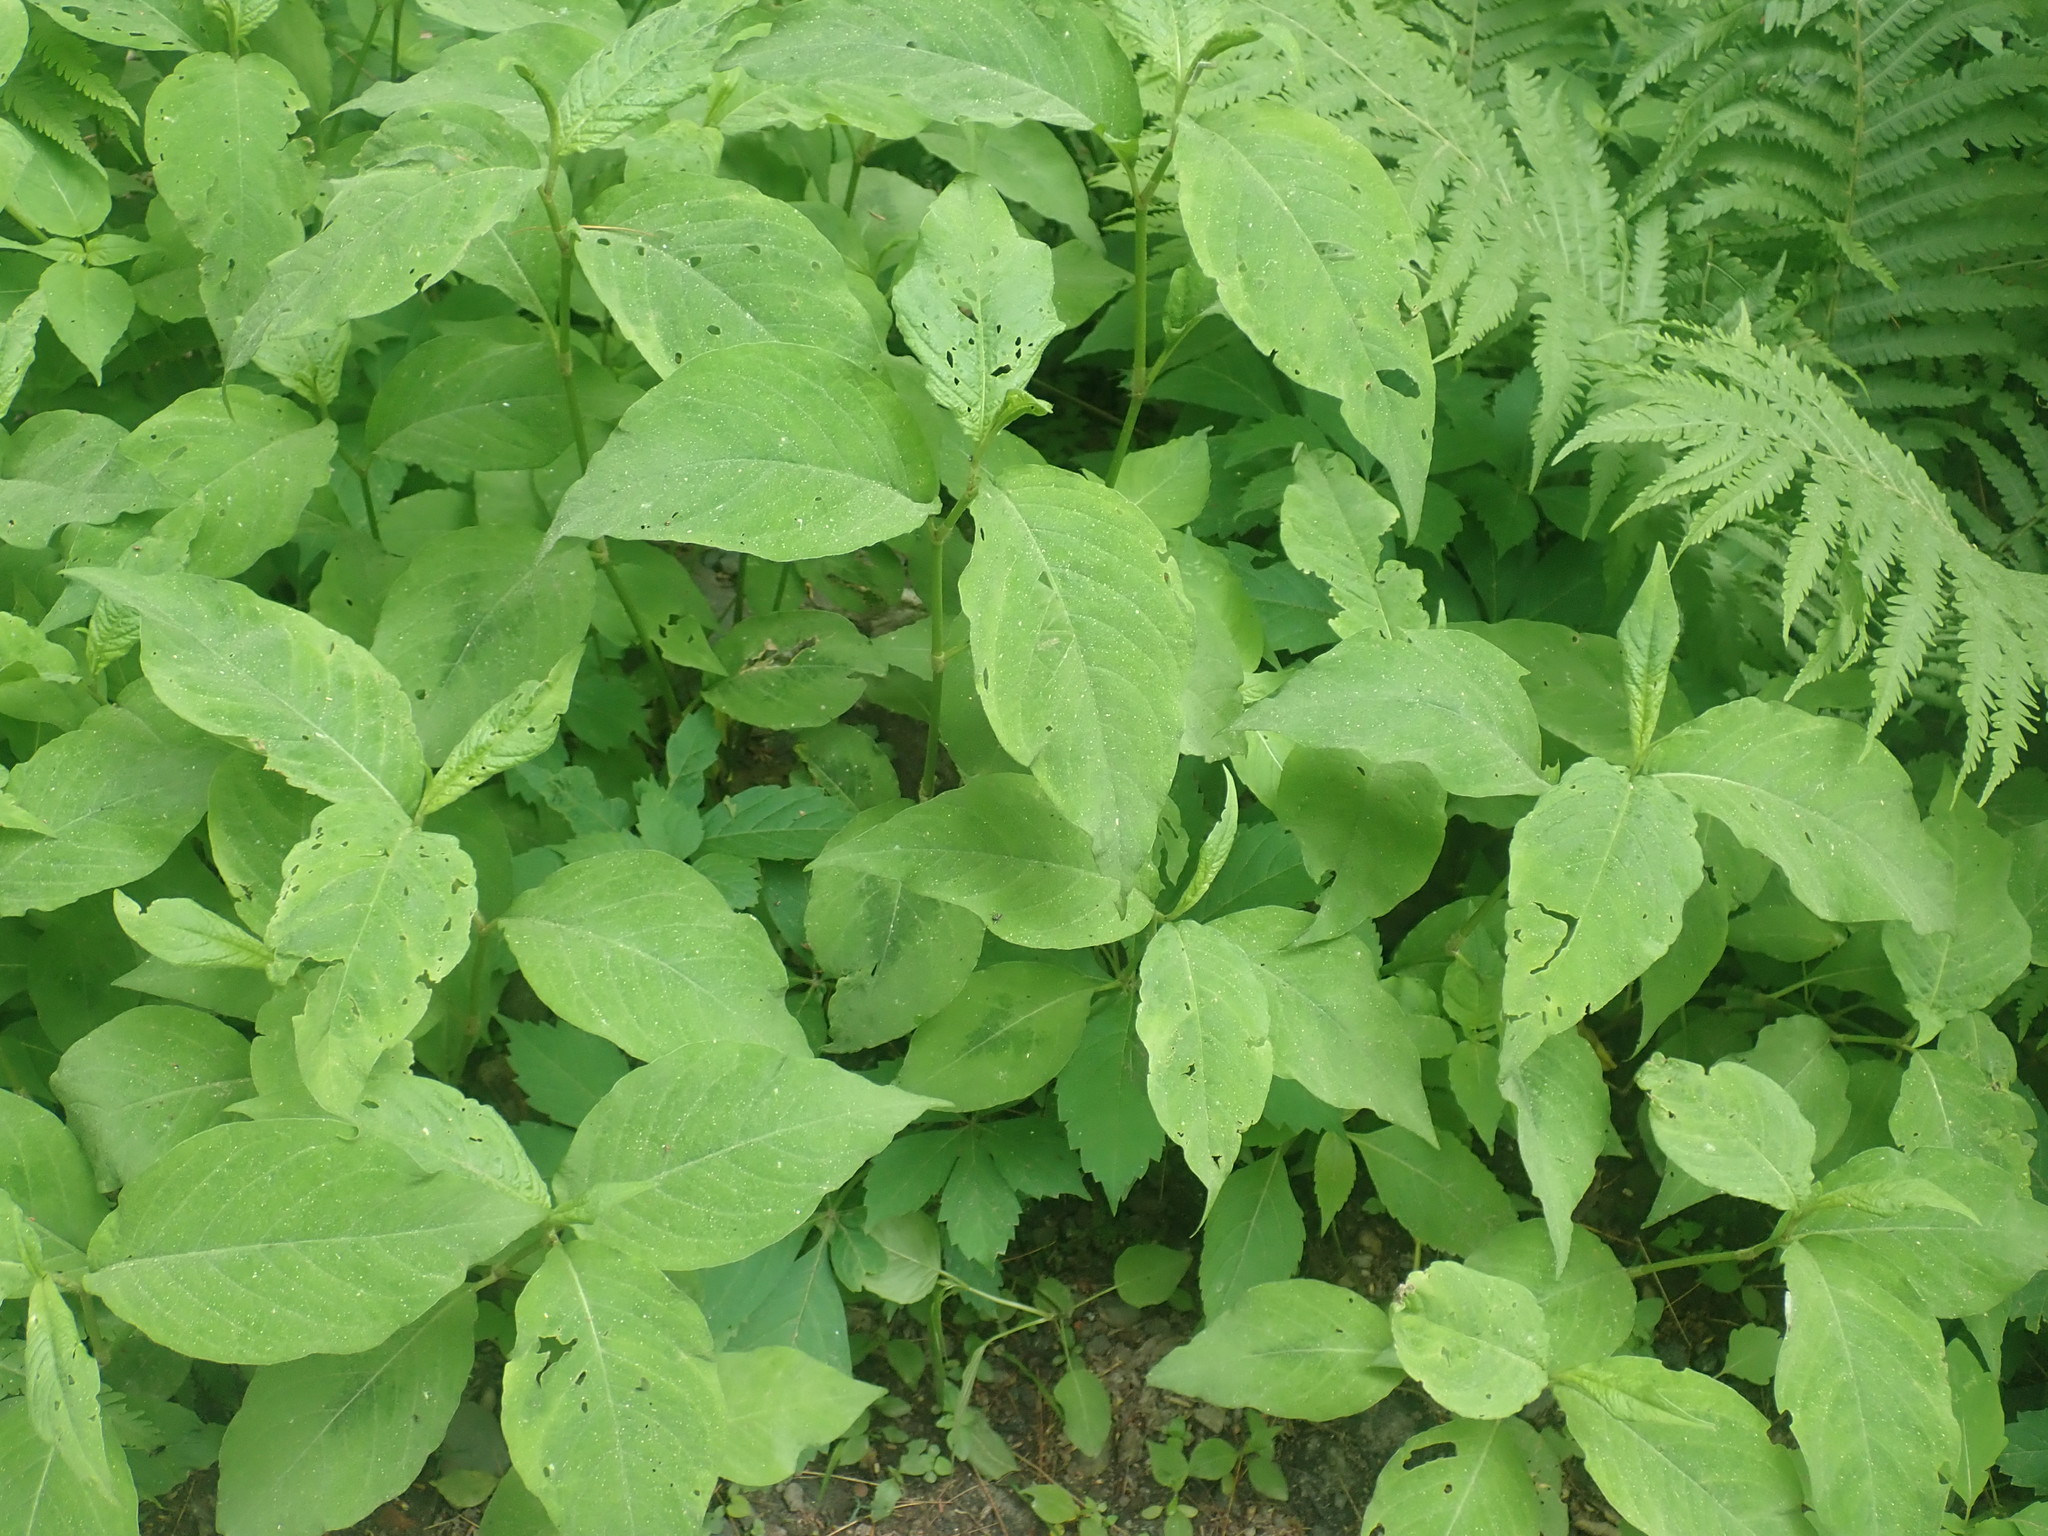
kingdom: Plantae
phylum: Tracheophyta
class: Magnoliopsida
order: Caryophyllales
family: Polygonaceae
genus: Persicaria
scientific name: Persicaria virginiana
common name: Jumpseed
